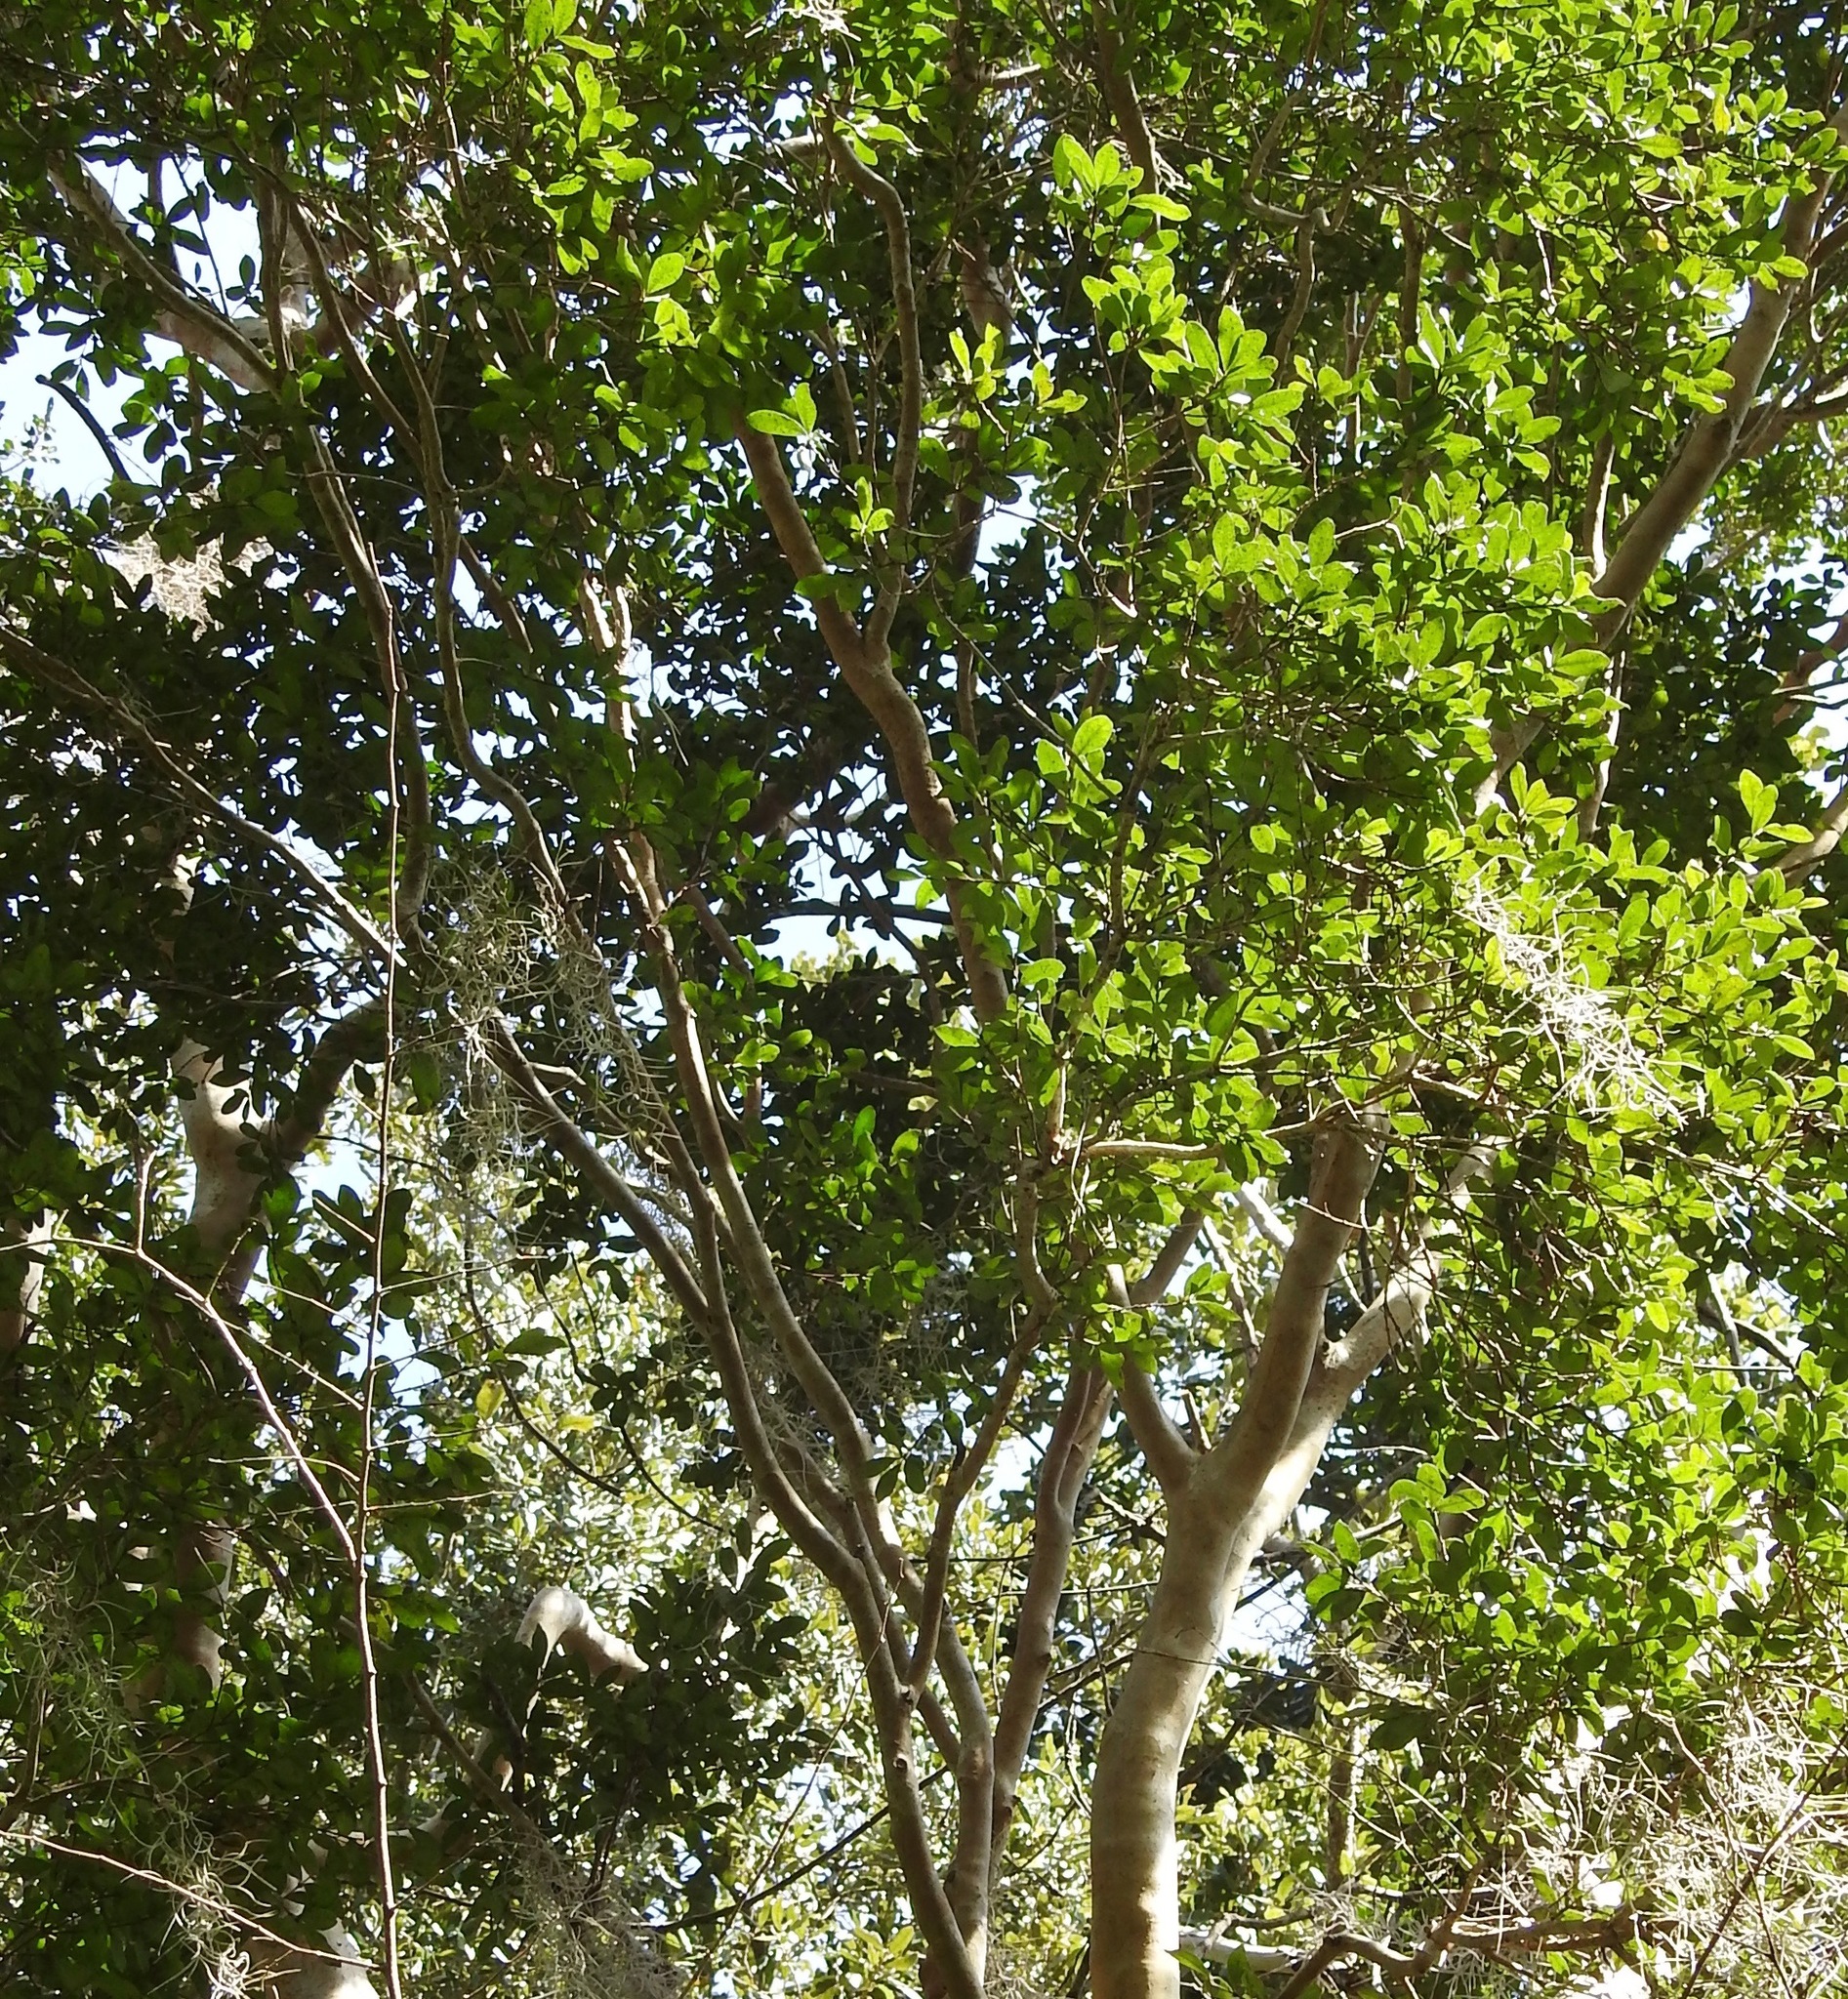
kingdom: Plantae
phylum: Tracheophyta
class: Magnoliopsida
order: Myrtales
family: Myrtaceae
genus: Myrcianthes
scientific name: Myrcianthes fragrans
